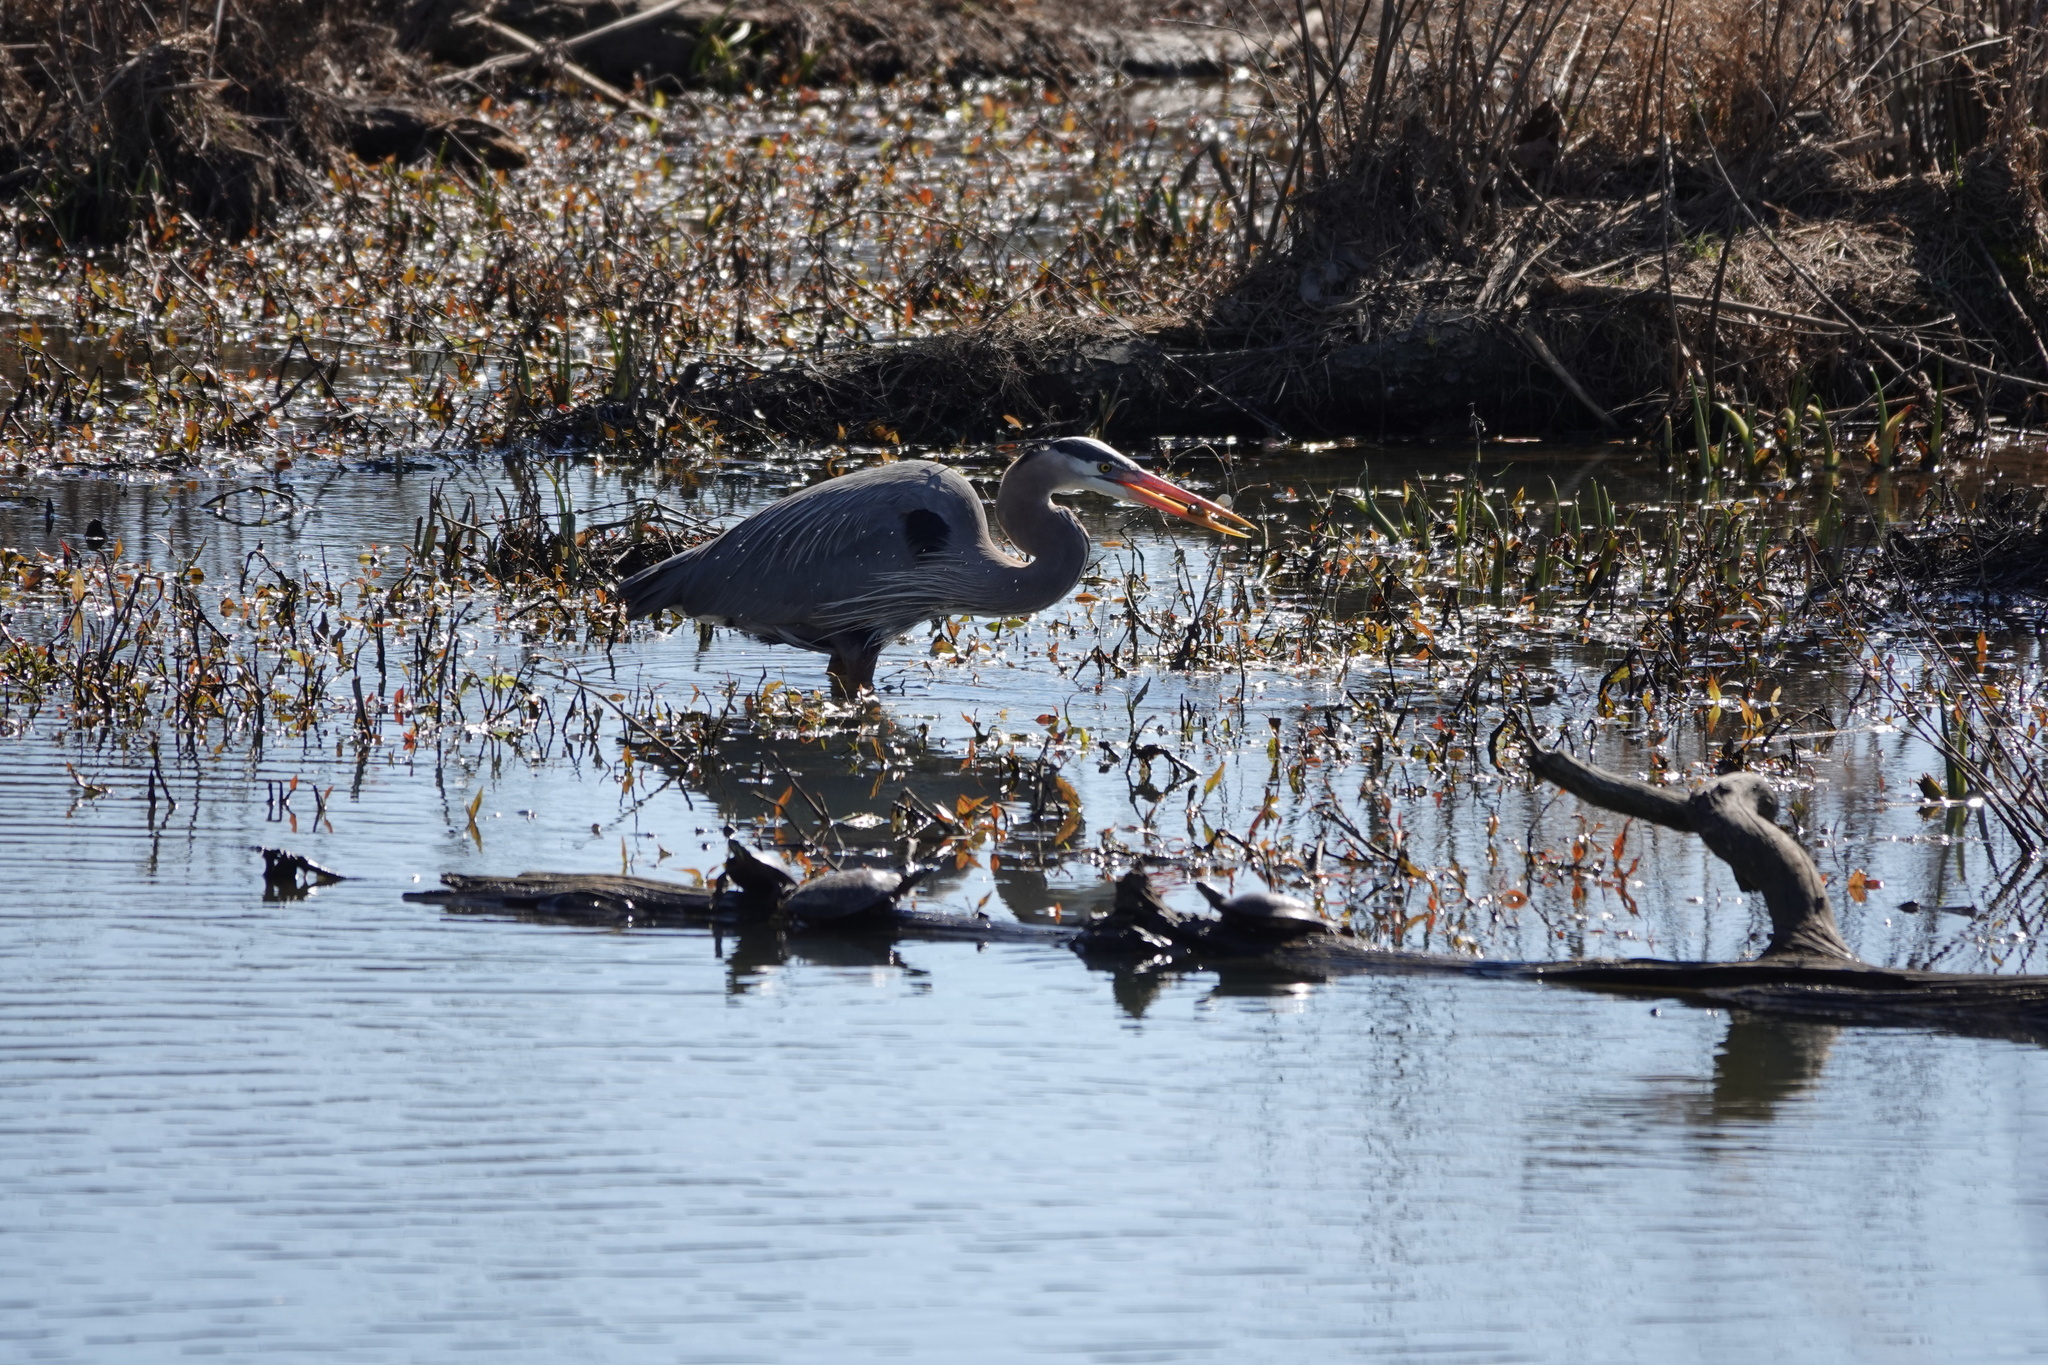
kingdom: Animalia
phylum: Chordata
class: Aves
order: Pelecaniformes
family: Ardeidae
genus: Ardea
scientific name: Ardea herodias
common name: Great blue heron
